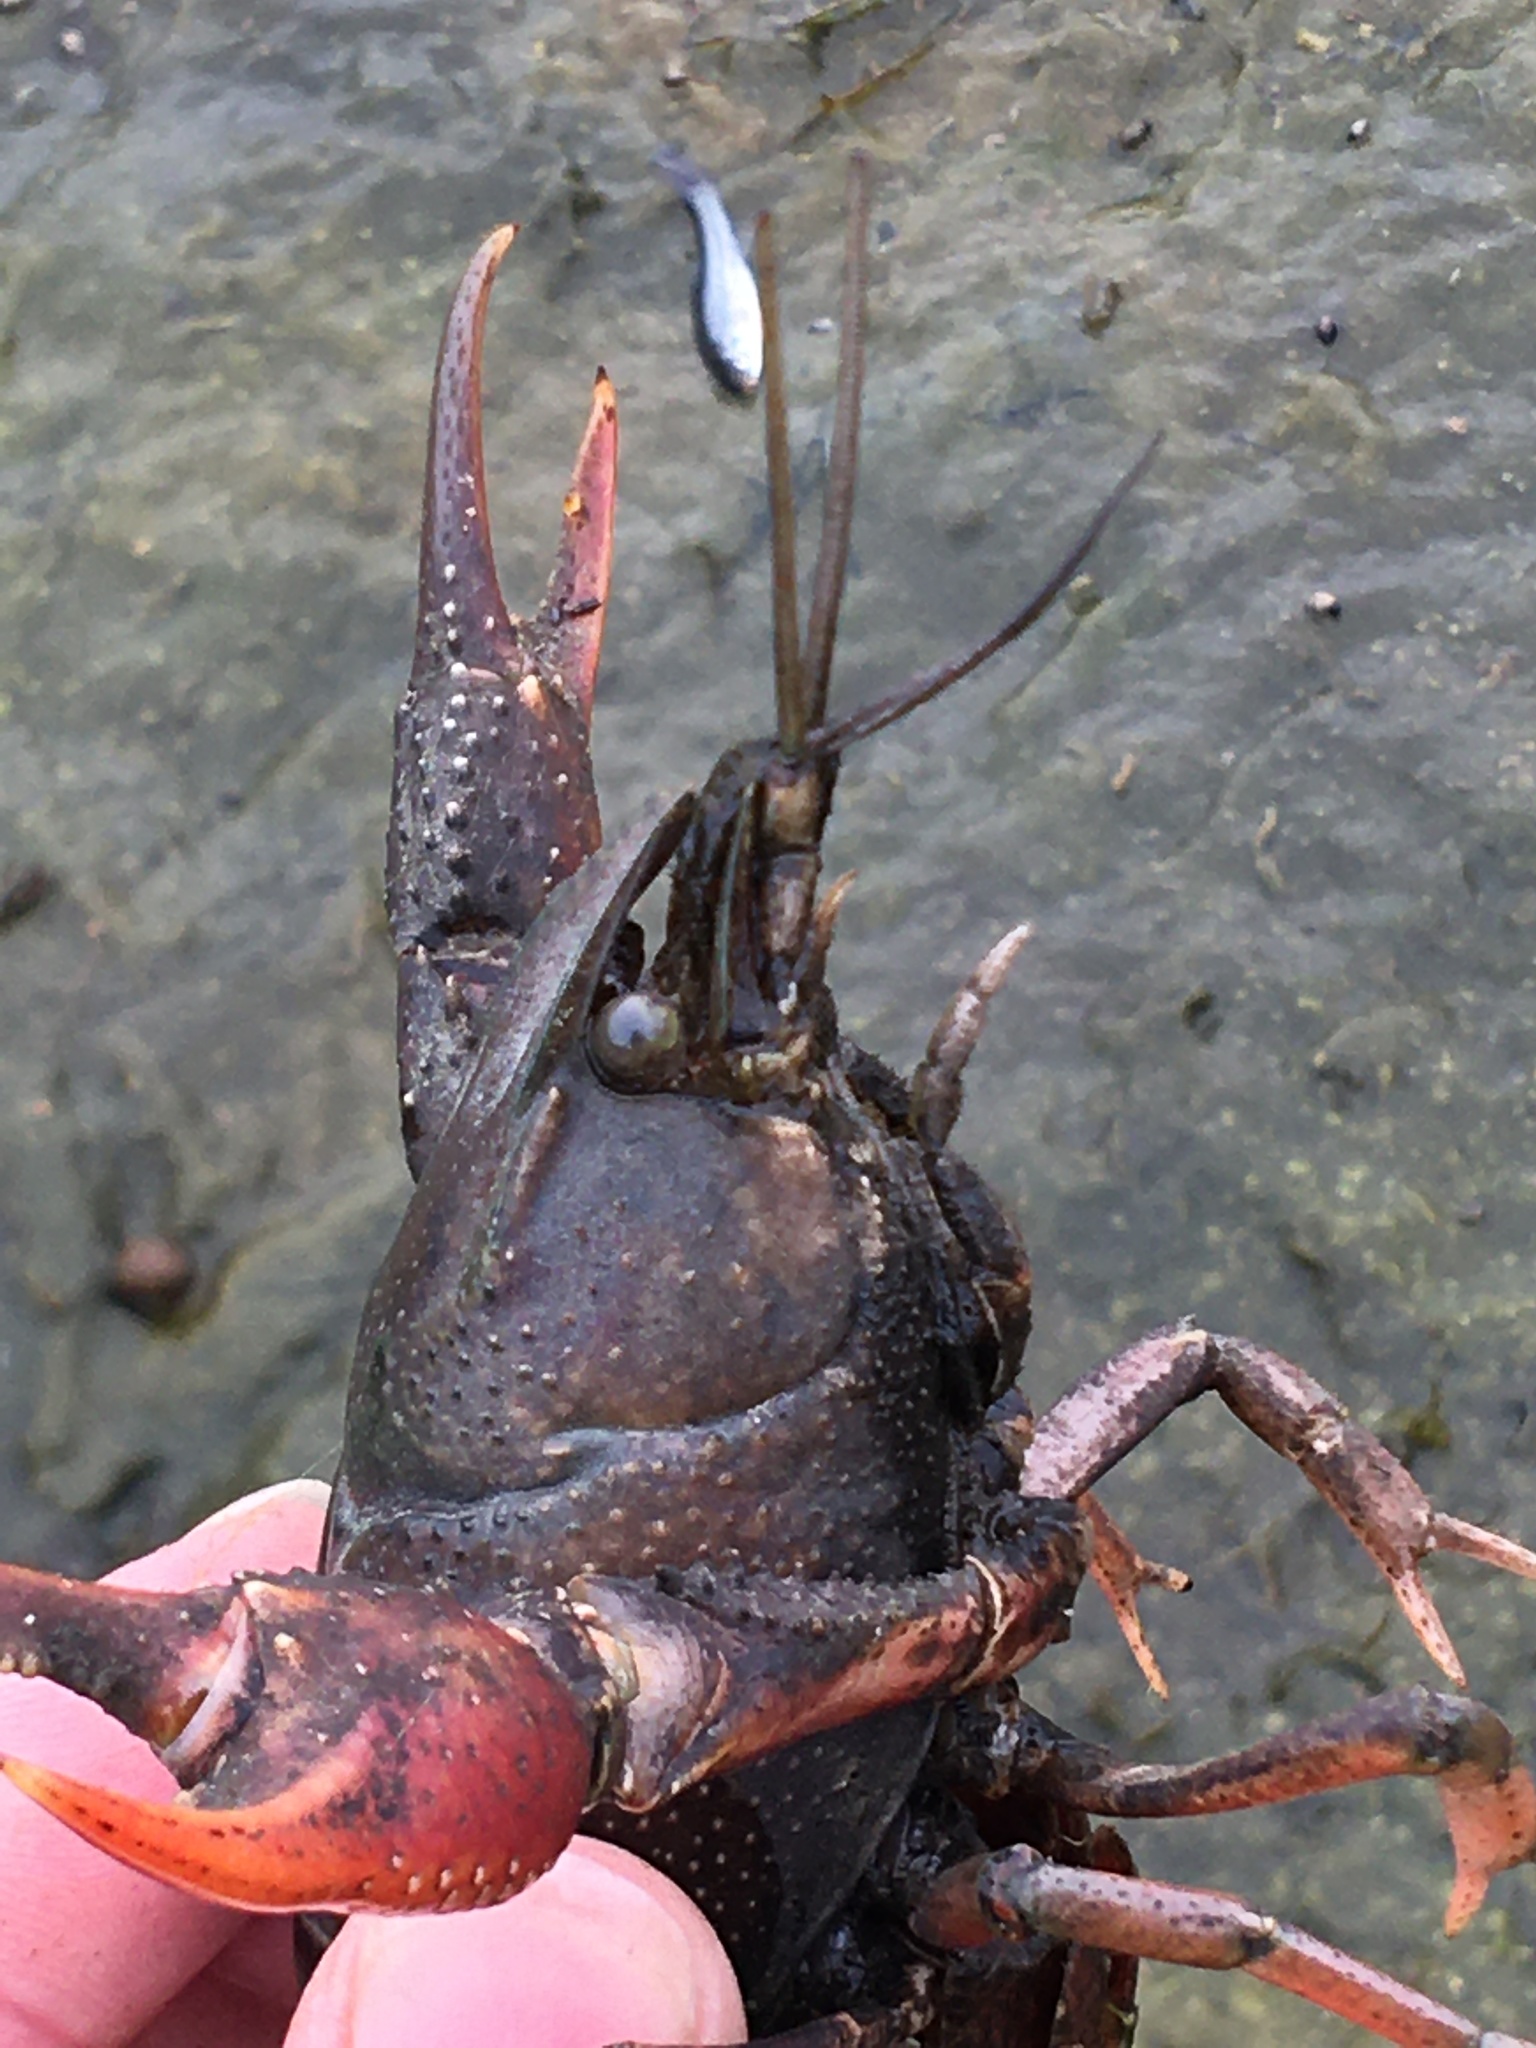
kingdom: Animalia
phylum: Arthropoda
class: Malacostraca
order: Decapoda
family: Cambaridae
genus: Procambarus
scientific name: Procambarus acutus
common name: White river crayfish
